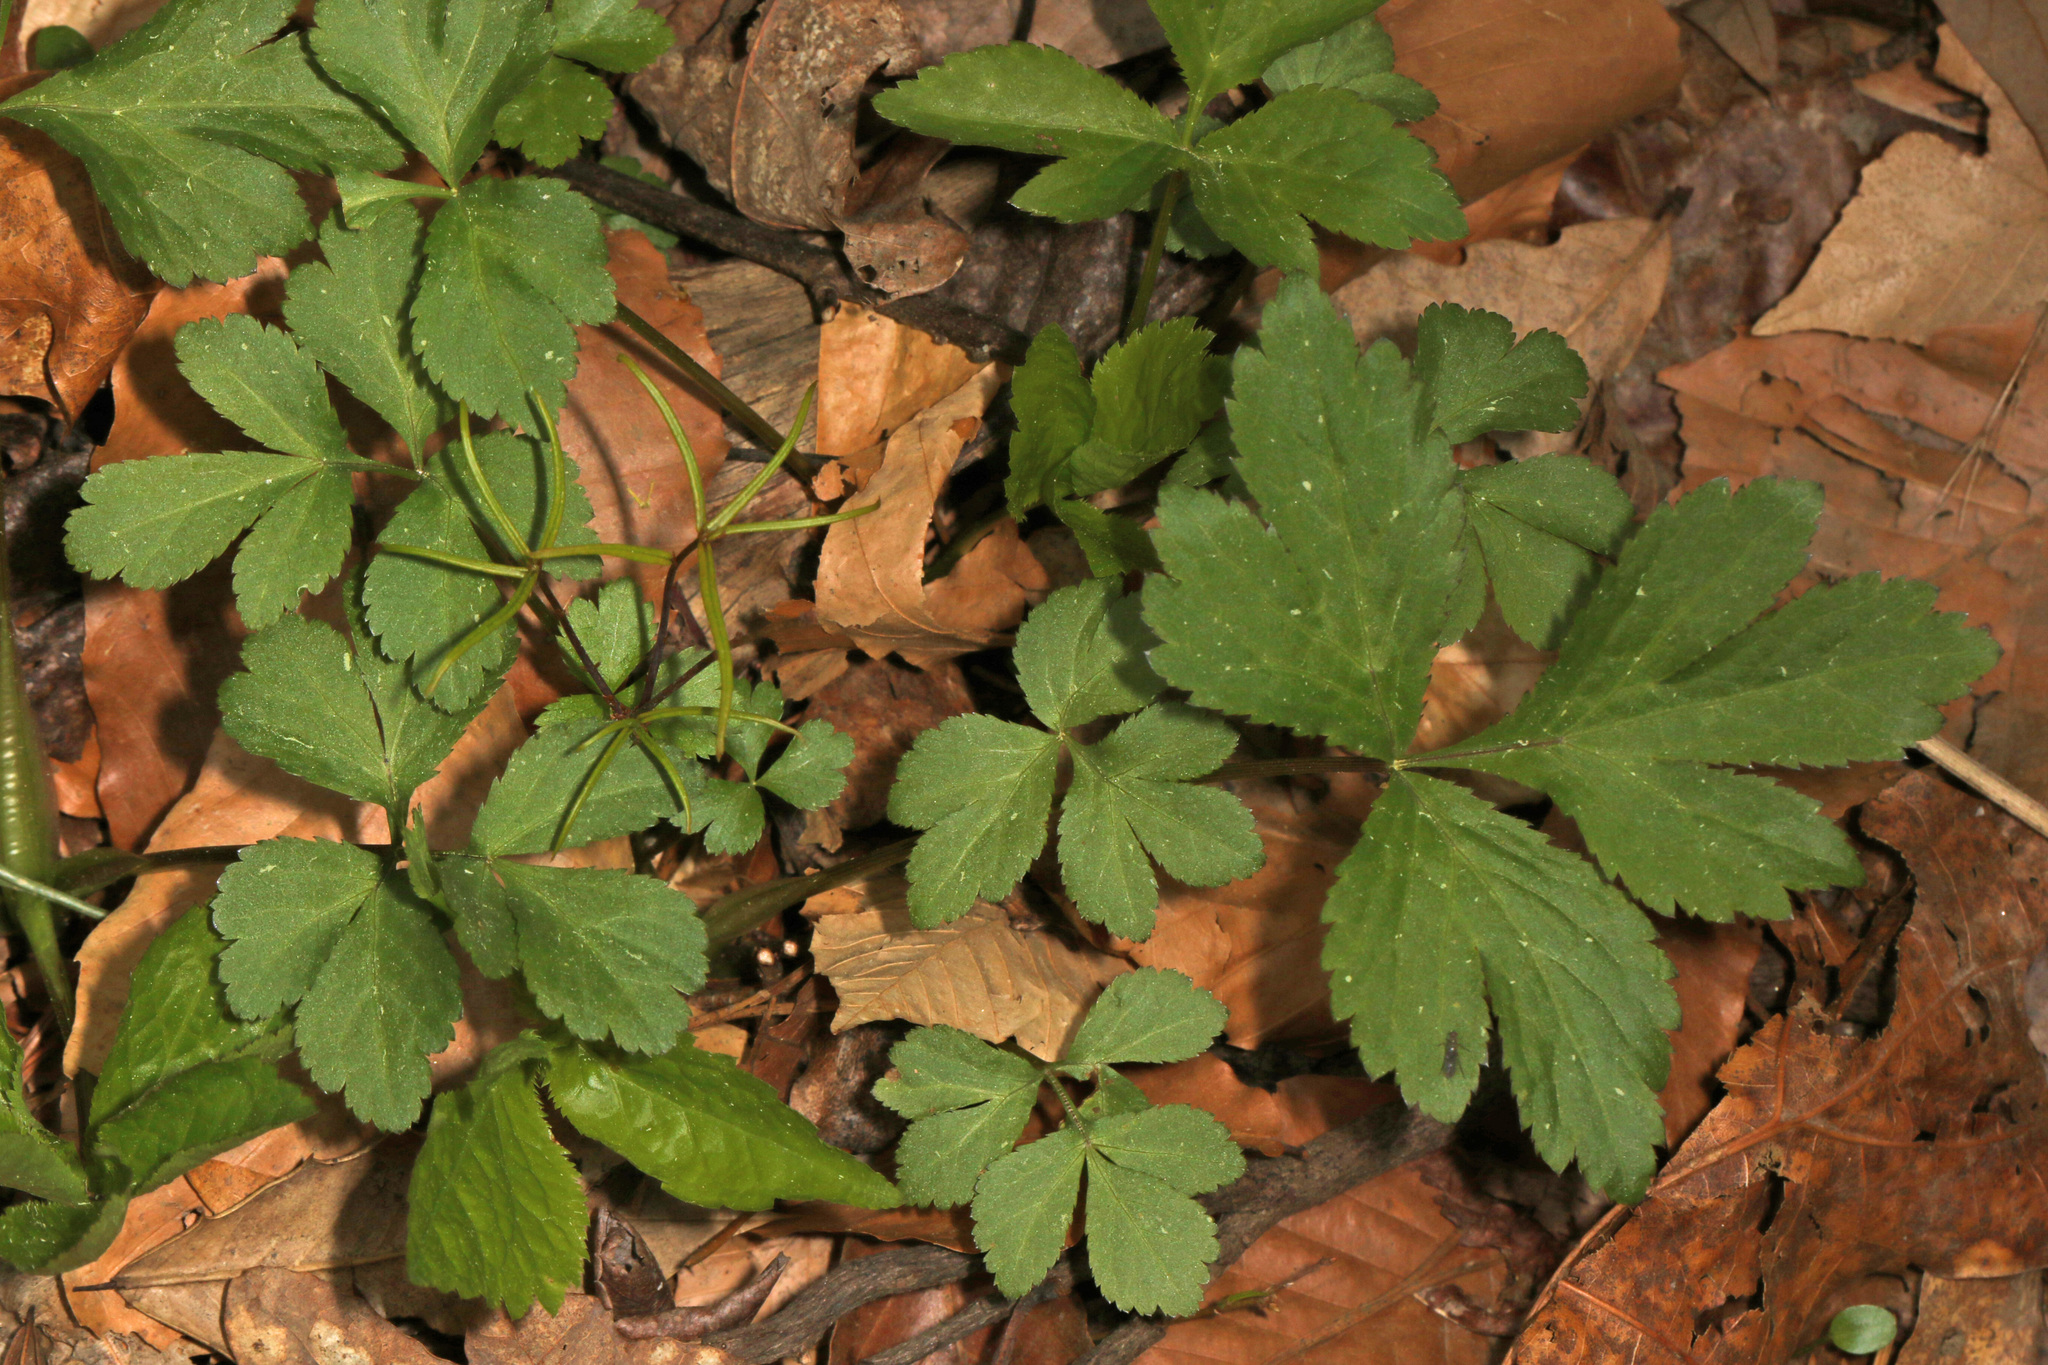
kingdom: Plantae
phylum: Tracheophyta
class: Magnoliopsida
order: Rosales
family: Rosaceae
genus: Geum
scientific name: Geum canadense
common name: White avens
